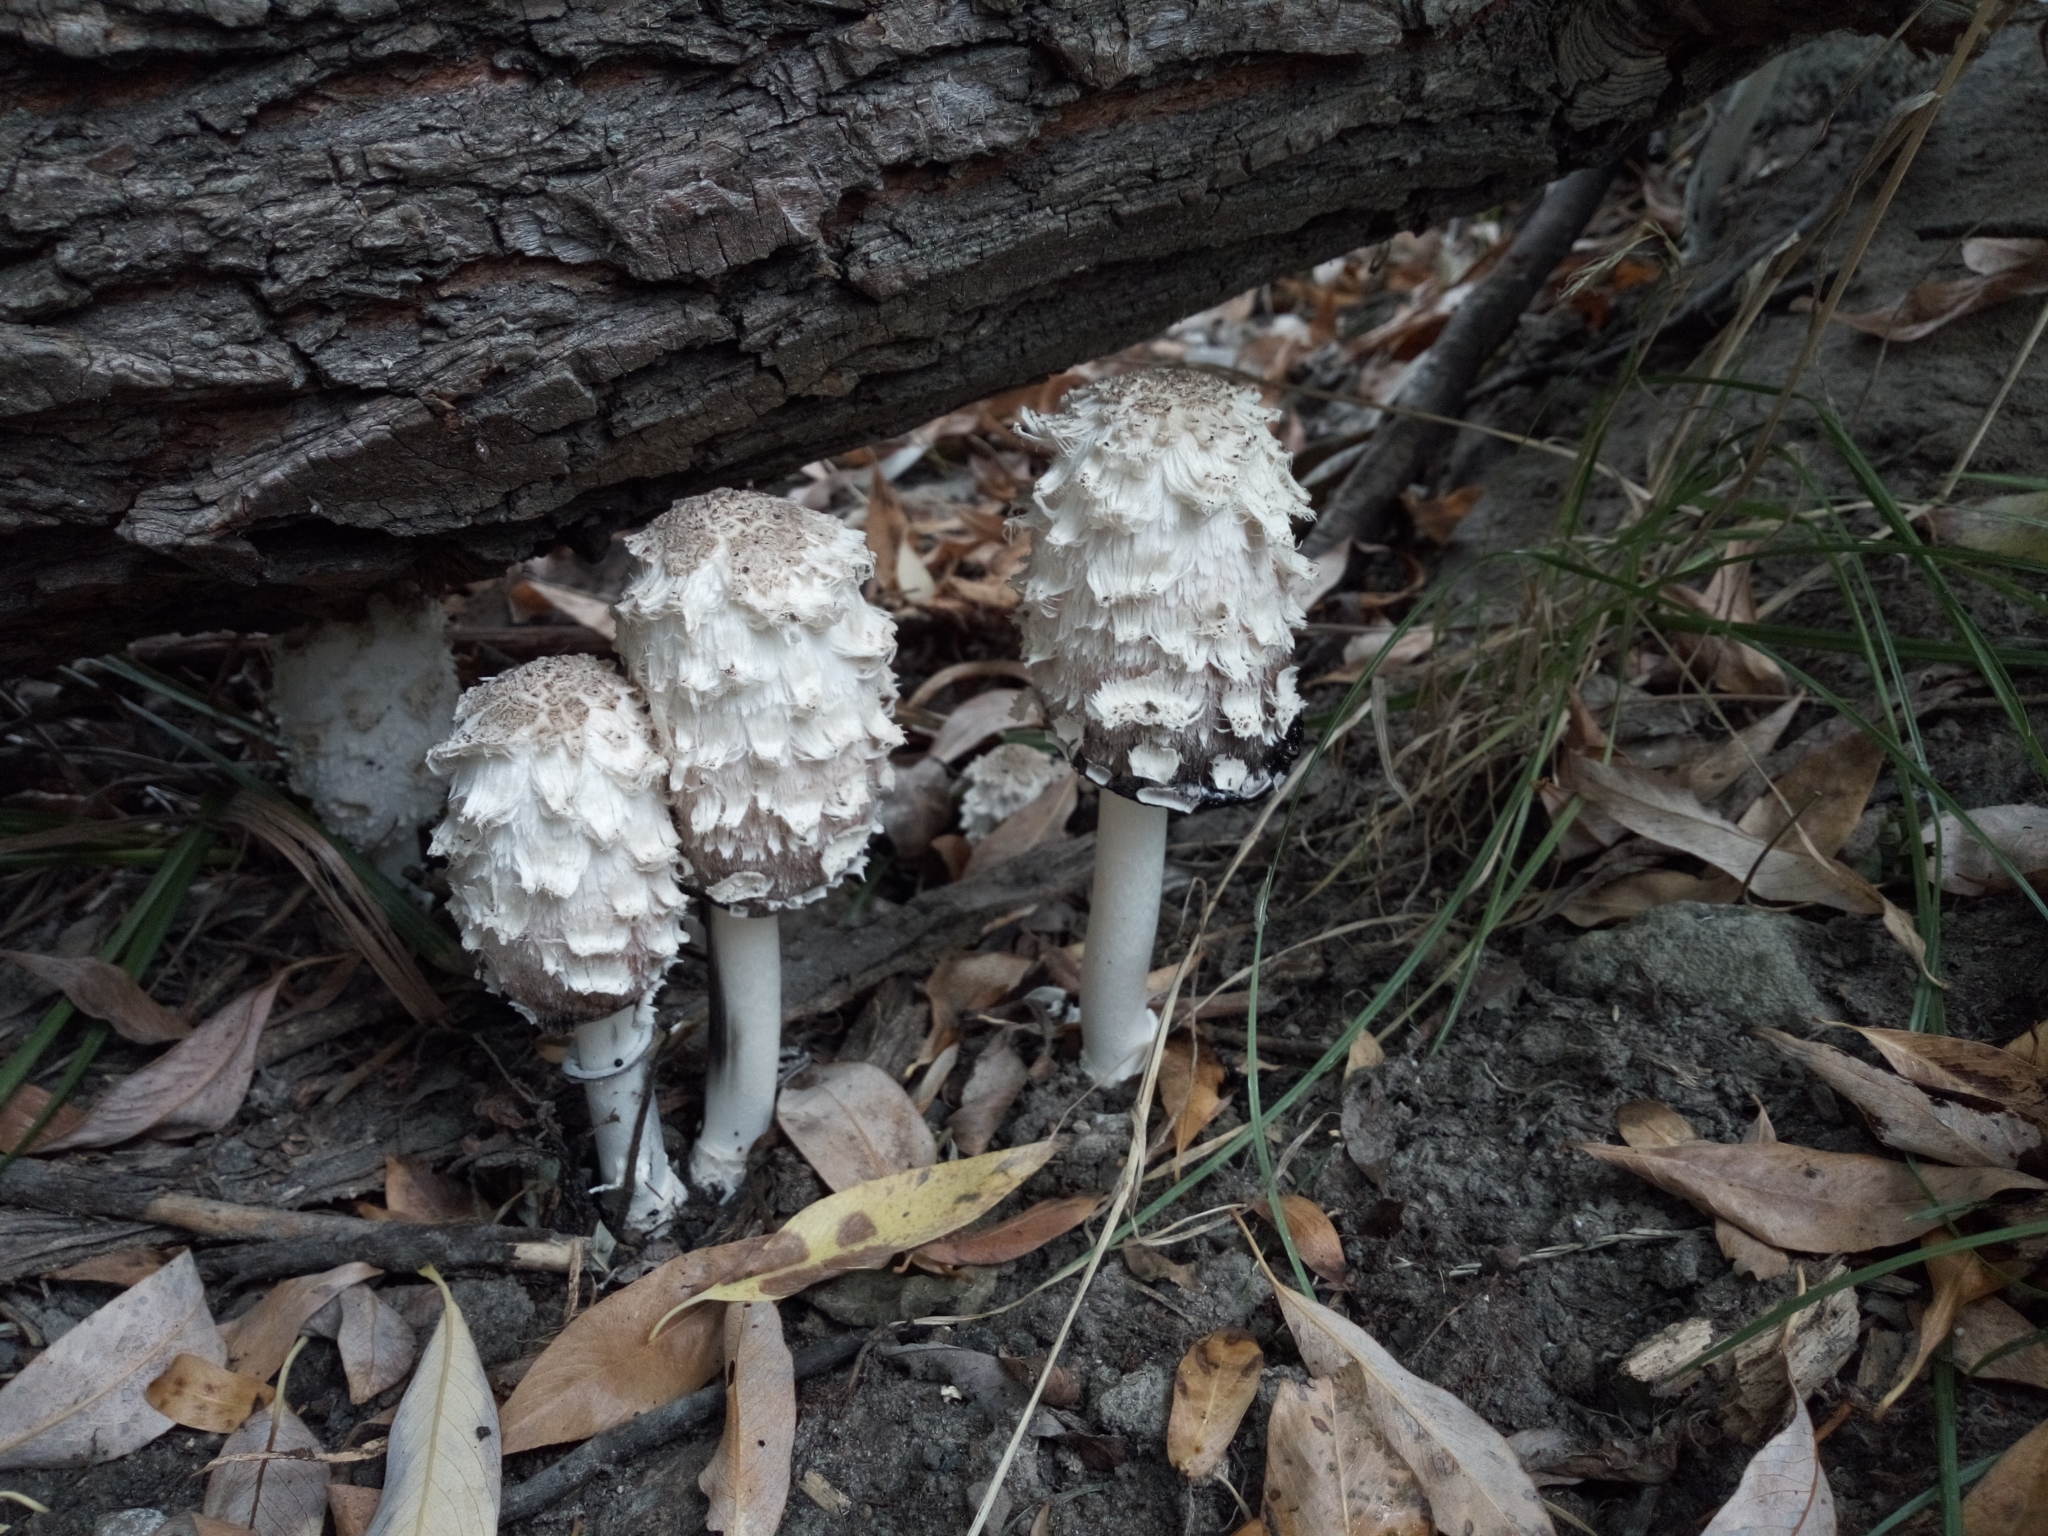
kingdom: Fungi
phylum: Basidiomycota
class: Agaricomycetes
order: Agaricales
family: Agaricaceae
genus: Coprinus
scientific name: Coprinus comatus
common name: Lawyer's wig
